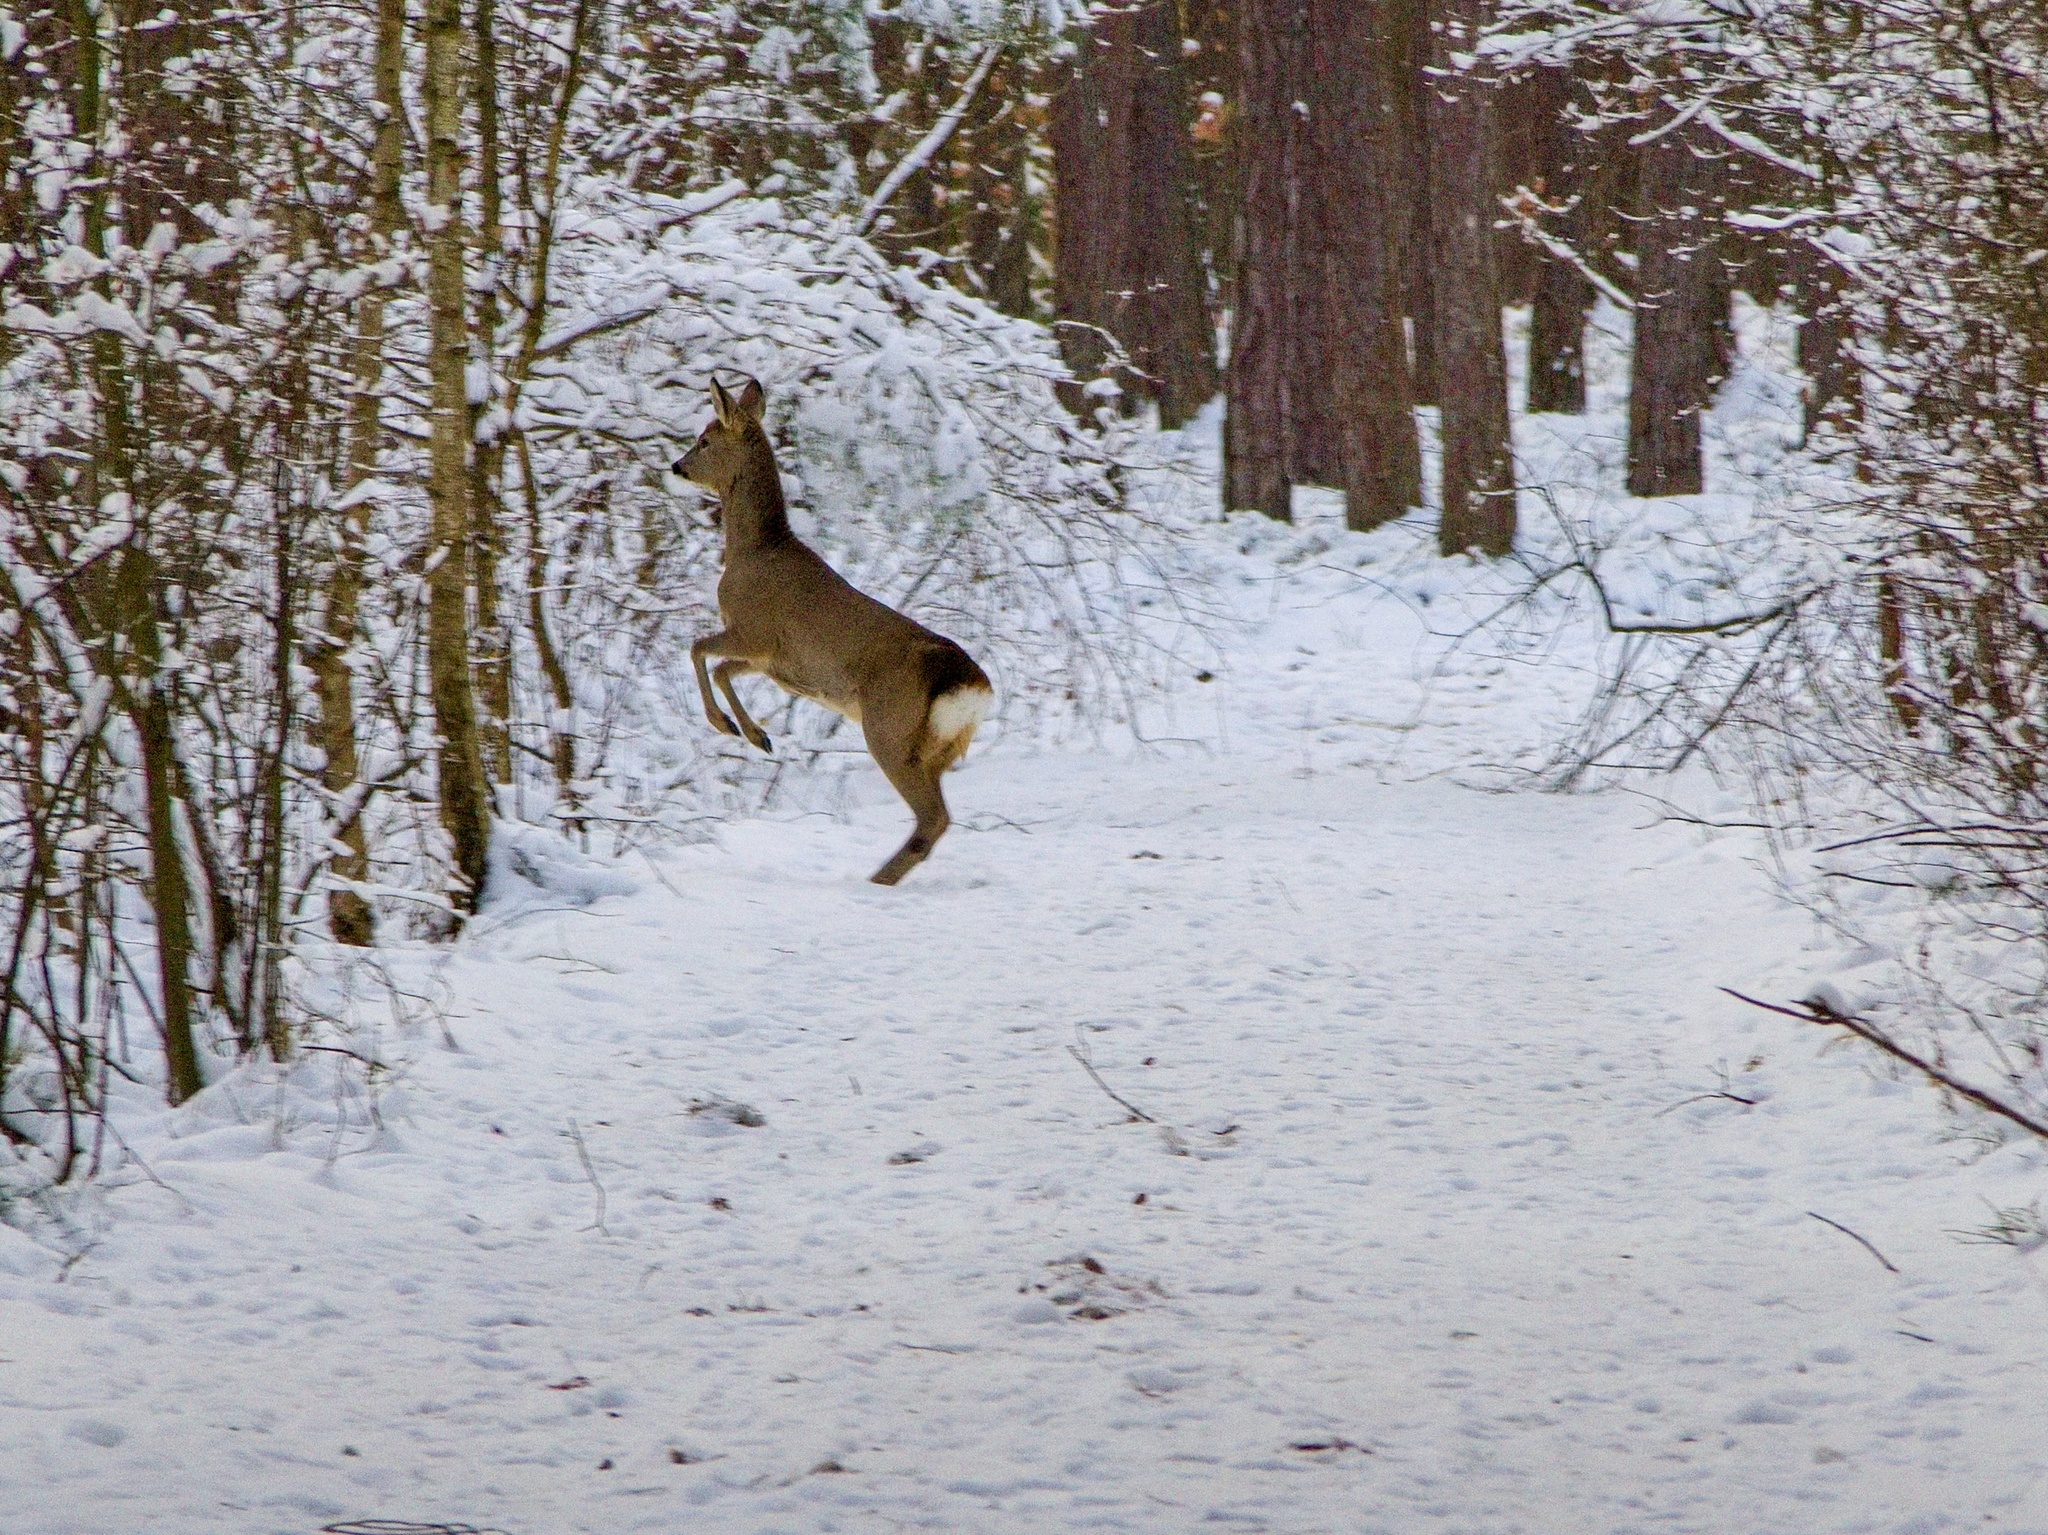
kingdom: Animalia
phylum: Chordata
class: Mammalia
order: Artiodactyla
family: Cervidae
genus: Capreolus
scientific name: Capreolus capreolus
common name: Western roe deer
